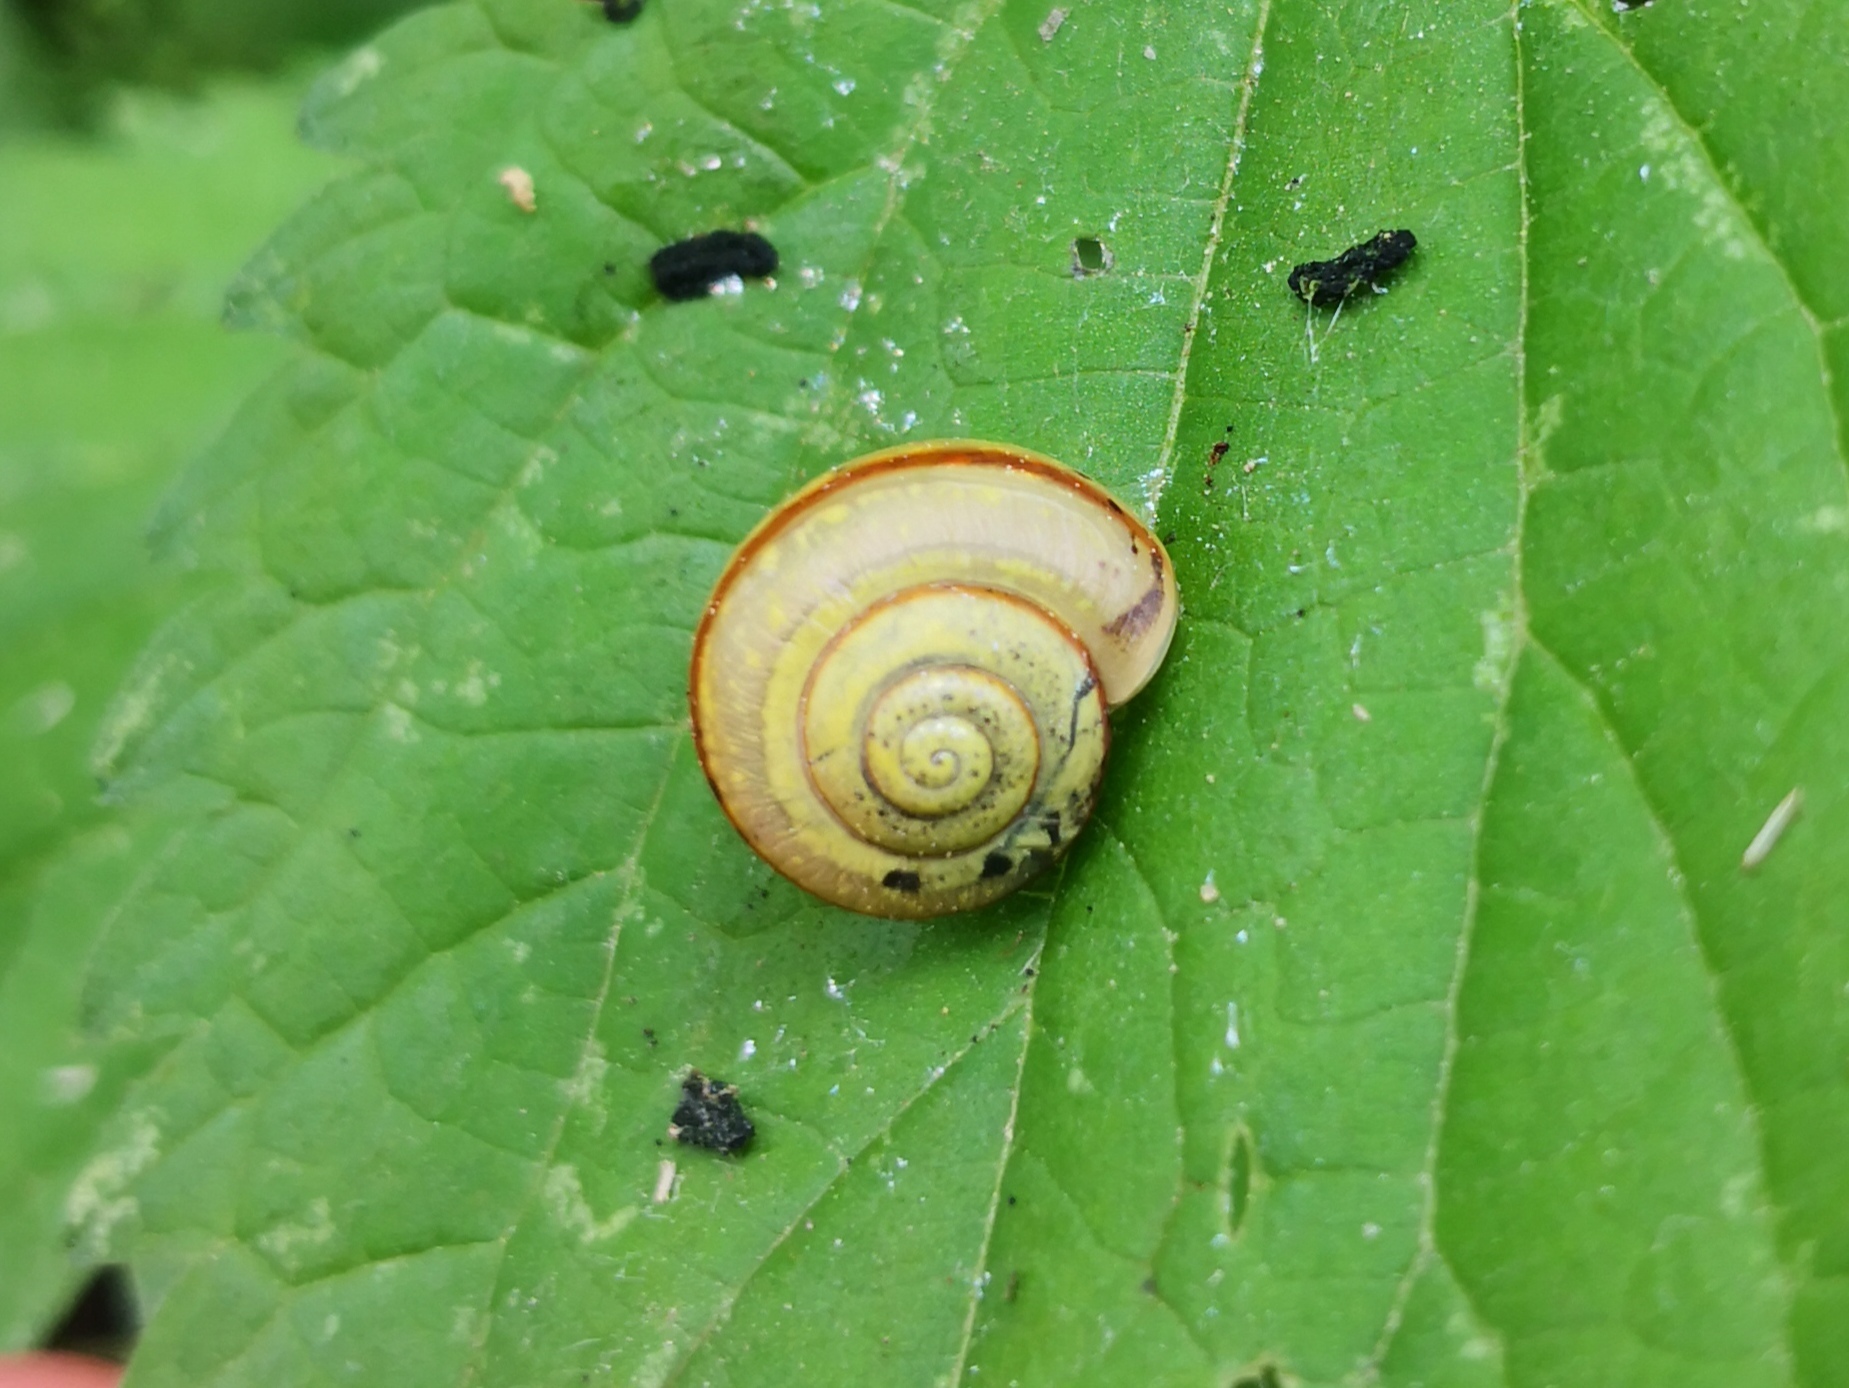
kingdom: Animalia
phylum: Mollusca
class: Gastropoda
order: Stylommatophora
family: Camaenidae
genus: Fruticicola
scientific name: Fruticicola fruticum
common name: Bush snail
